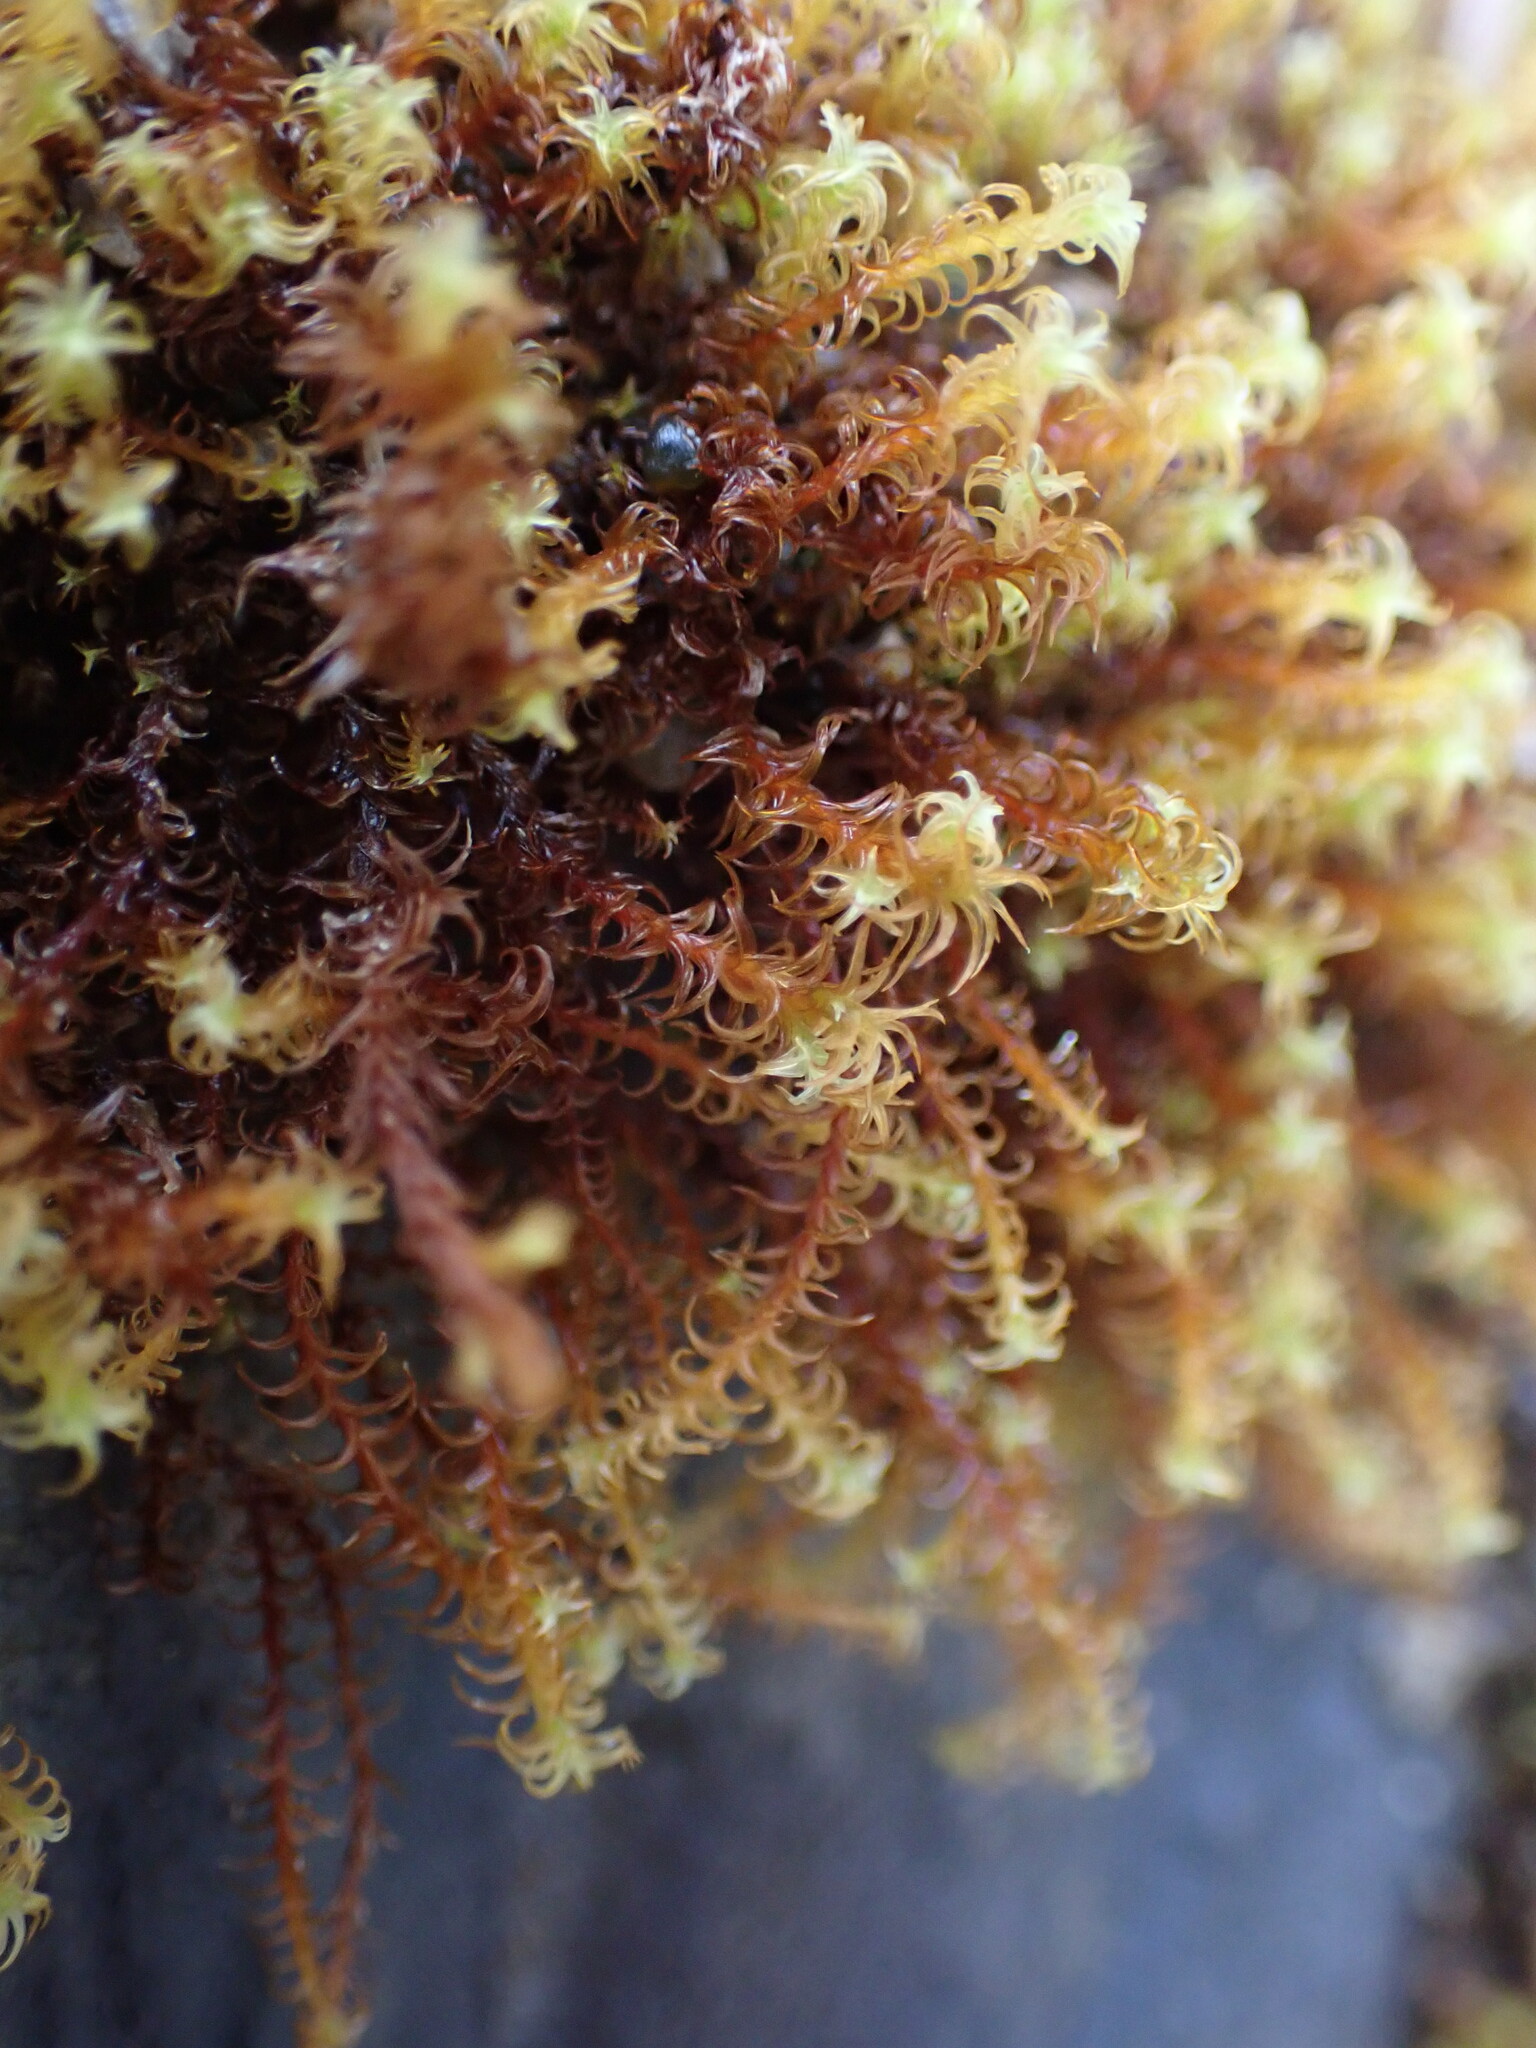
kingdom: Plantae
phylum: Bryophyta
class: Bryopsida
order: Pottiales
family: Pottiaceae
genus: Geheebia
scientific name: Geheebia ferruginea
